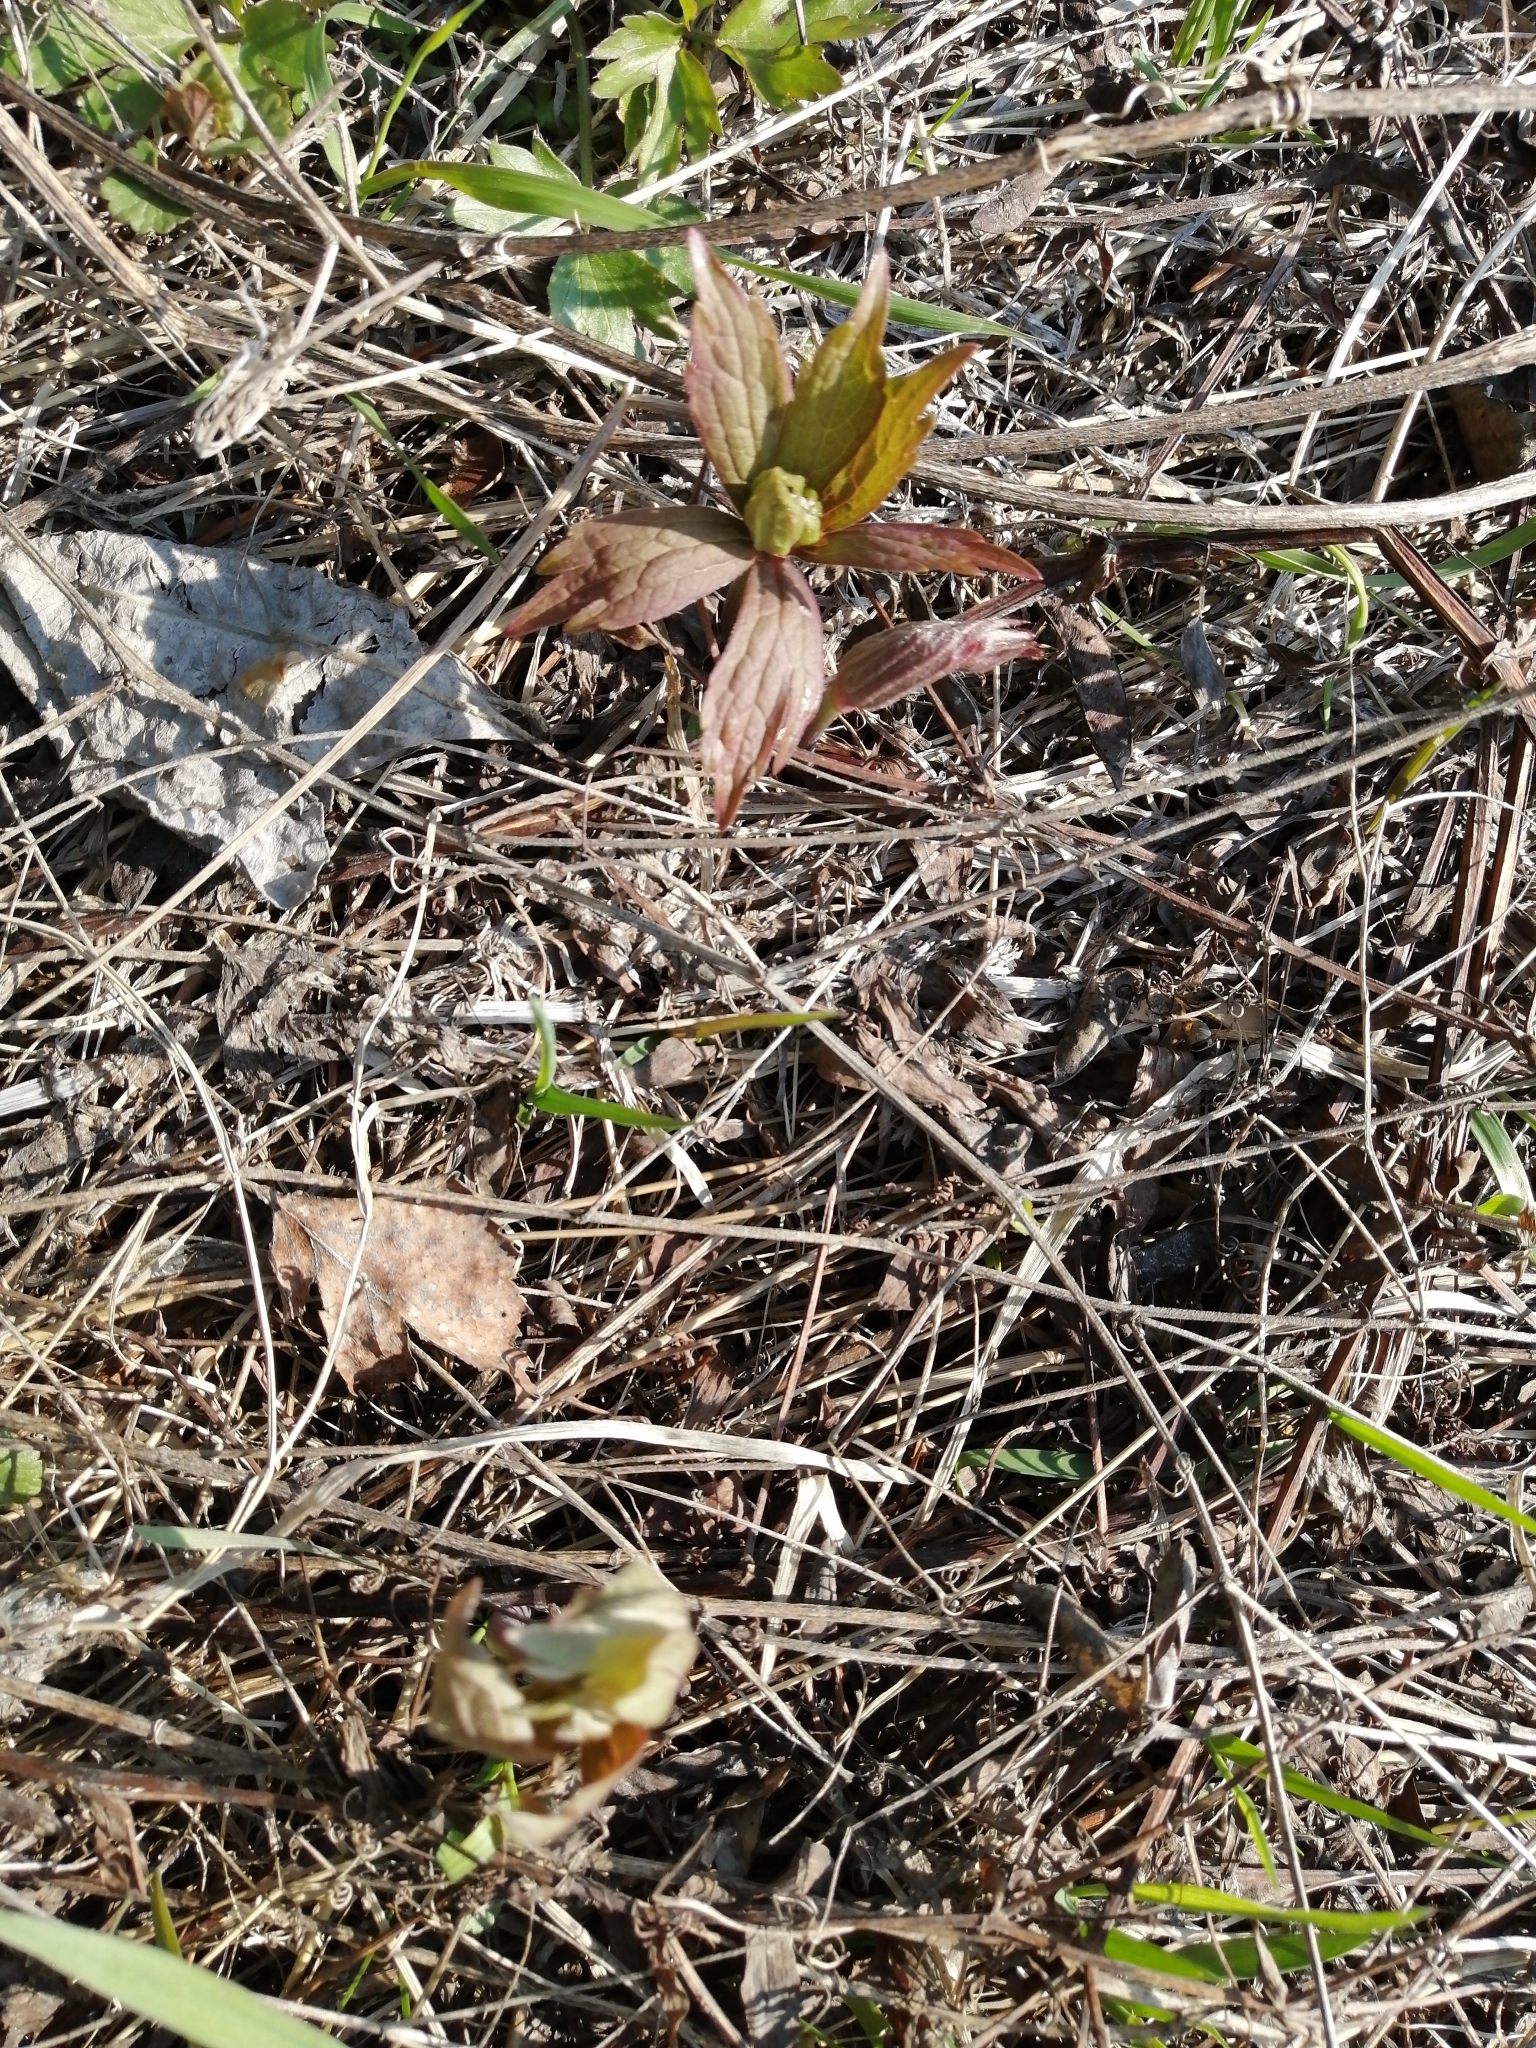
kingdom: Plantae
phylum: Tracheophyta
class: Magnoliopsida
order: Ranunculales
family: Ranunculaceae
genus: Anemonastrum
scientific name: Anemonastrum dichotomum
